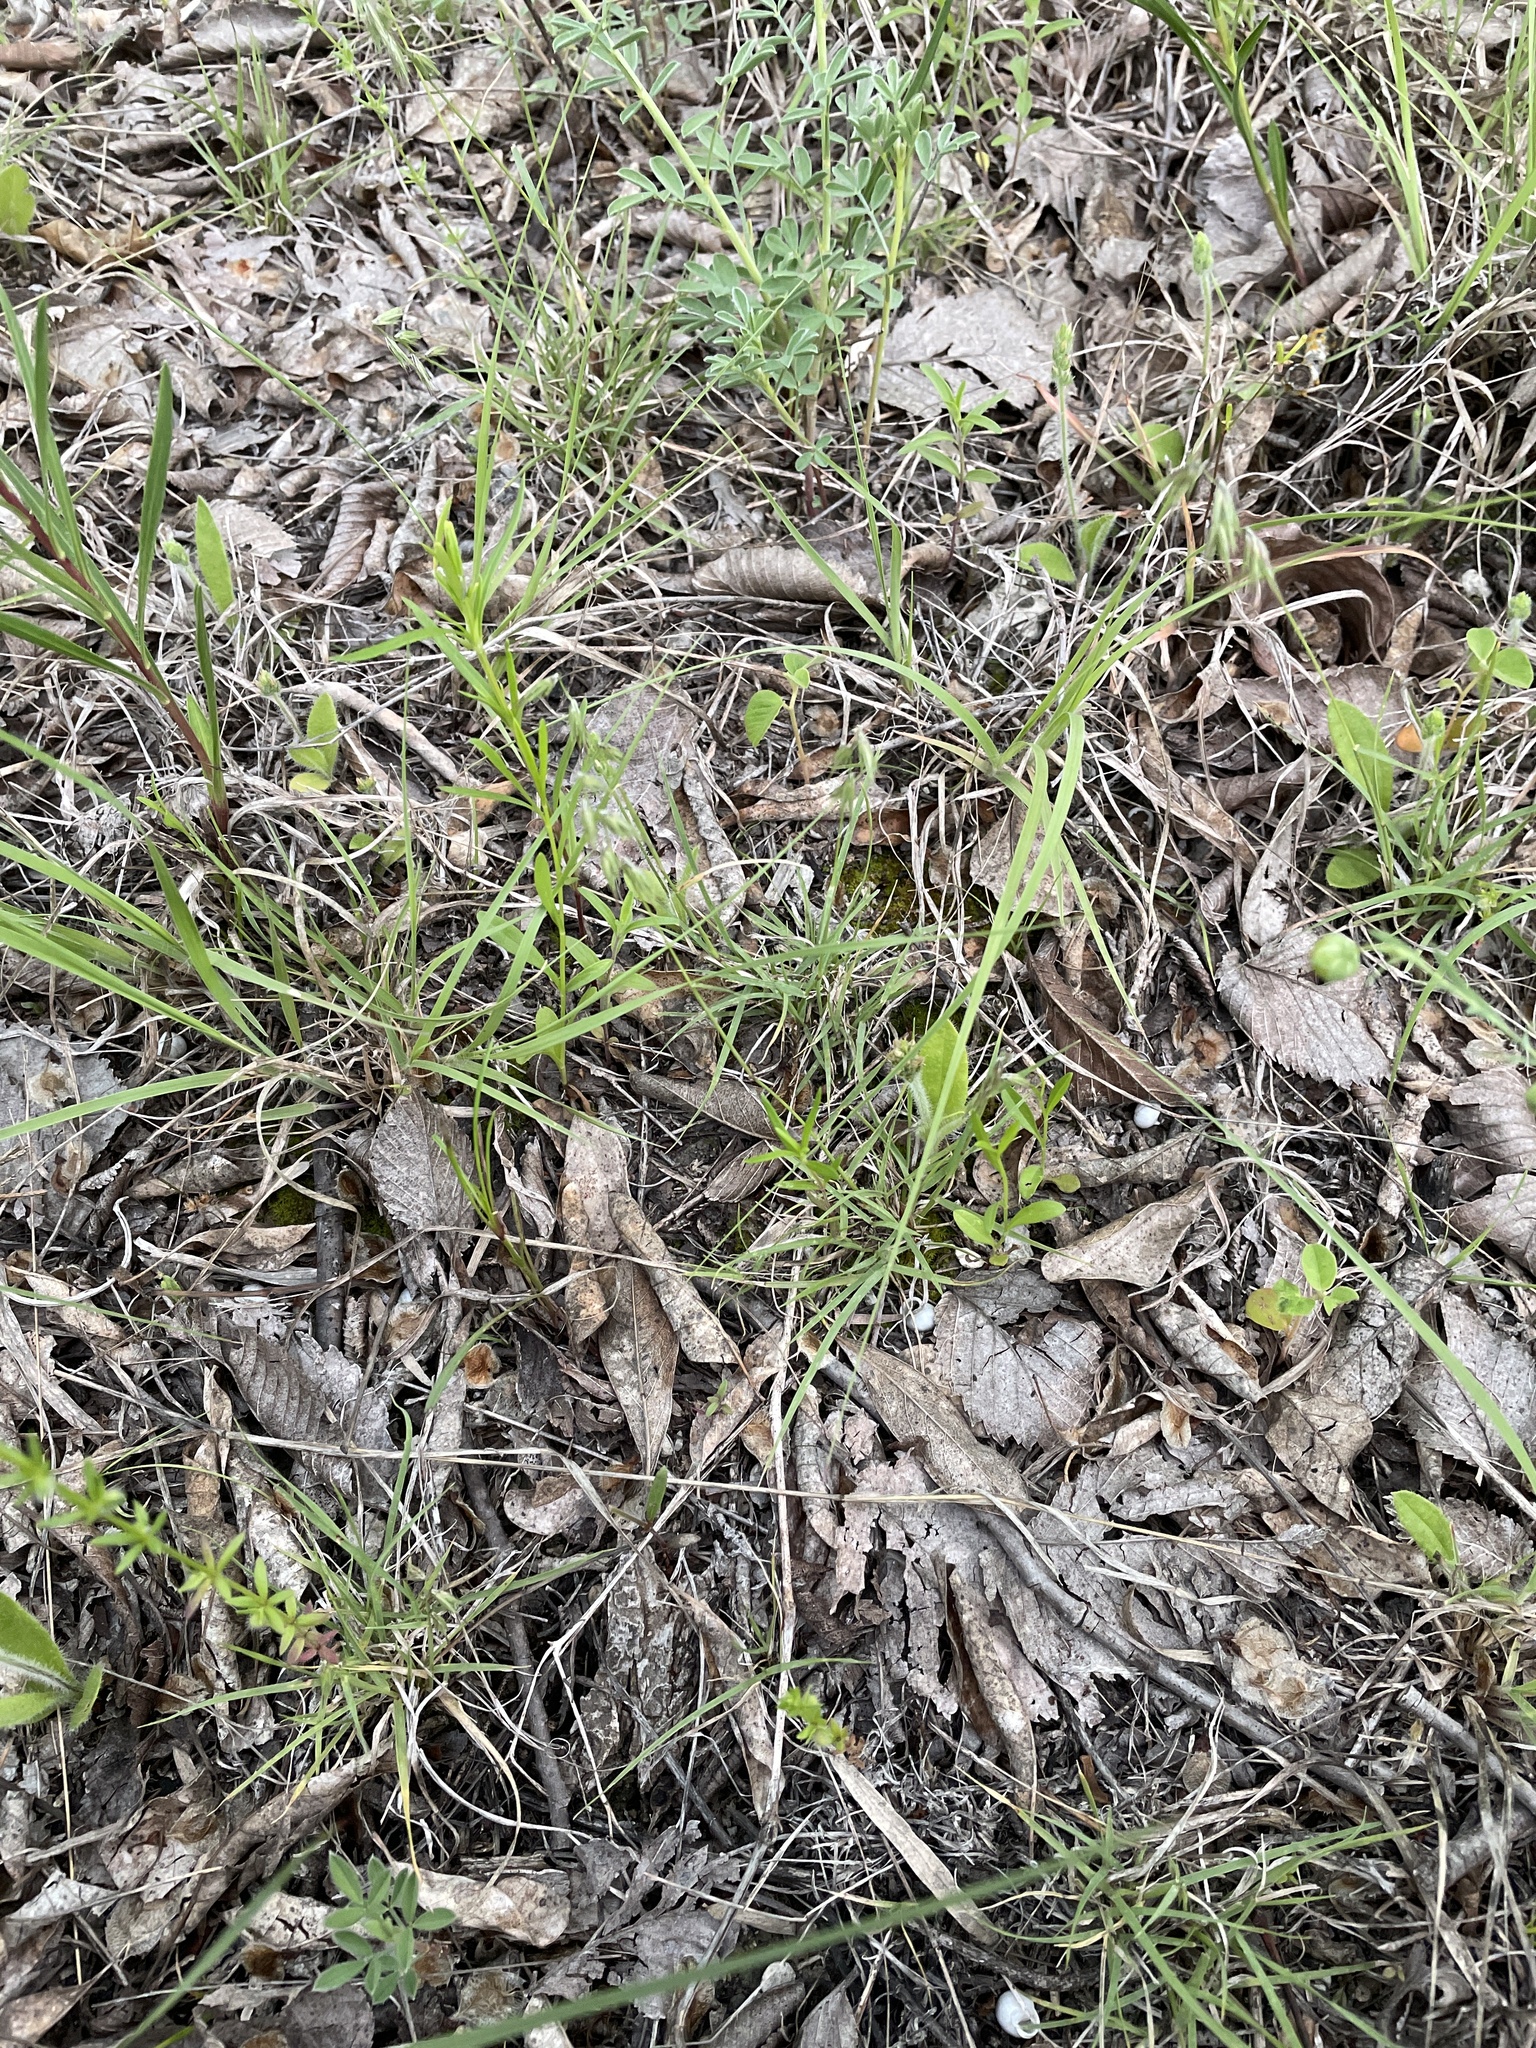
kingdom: Plantae
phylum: Tracheophyta
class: Liliopsida
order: Poales
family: Poaceae
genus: Bouteloua
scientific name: Bouteloua rigidiseta
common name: Texas grama
